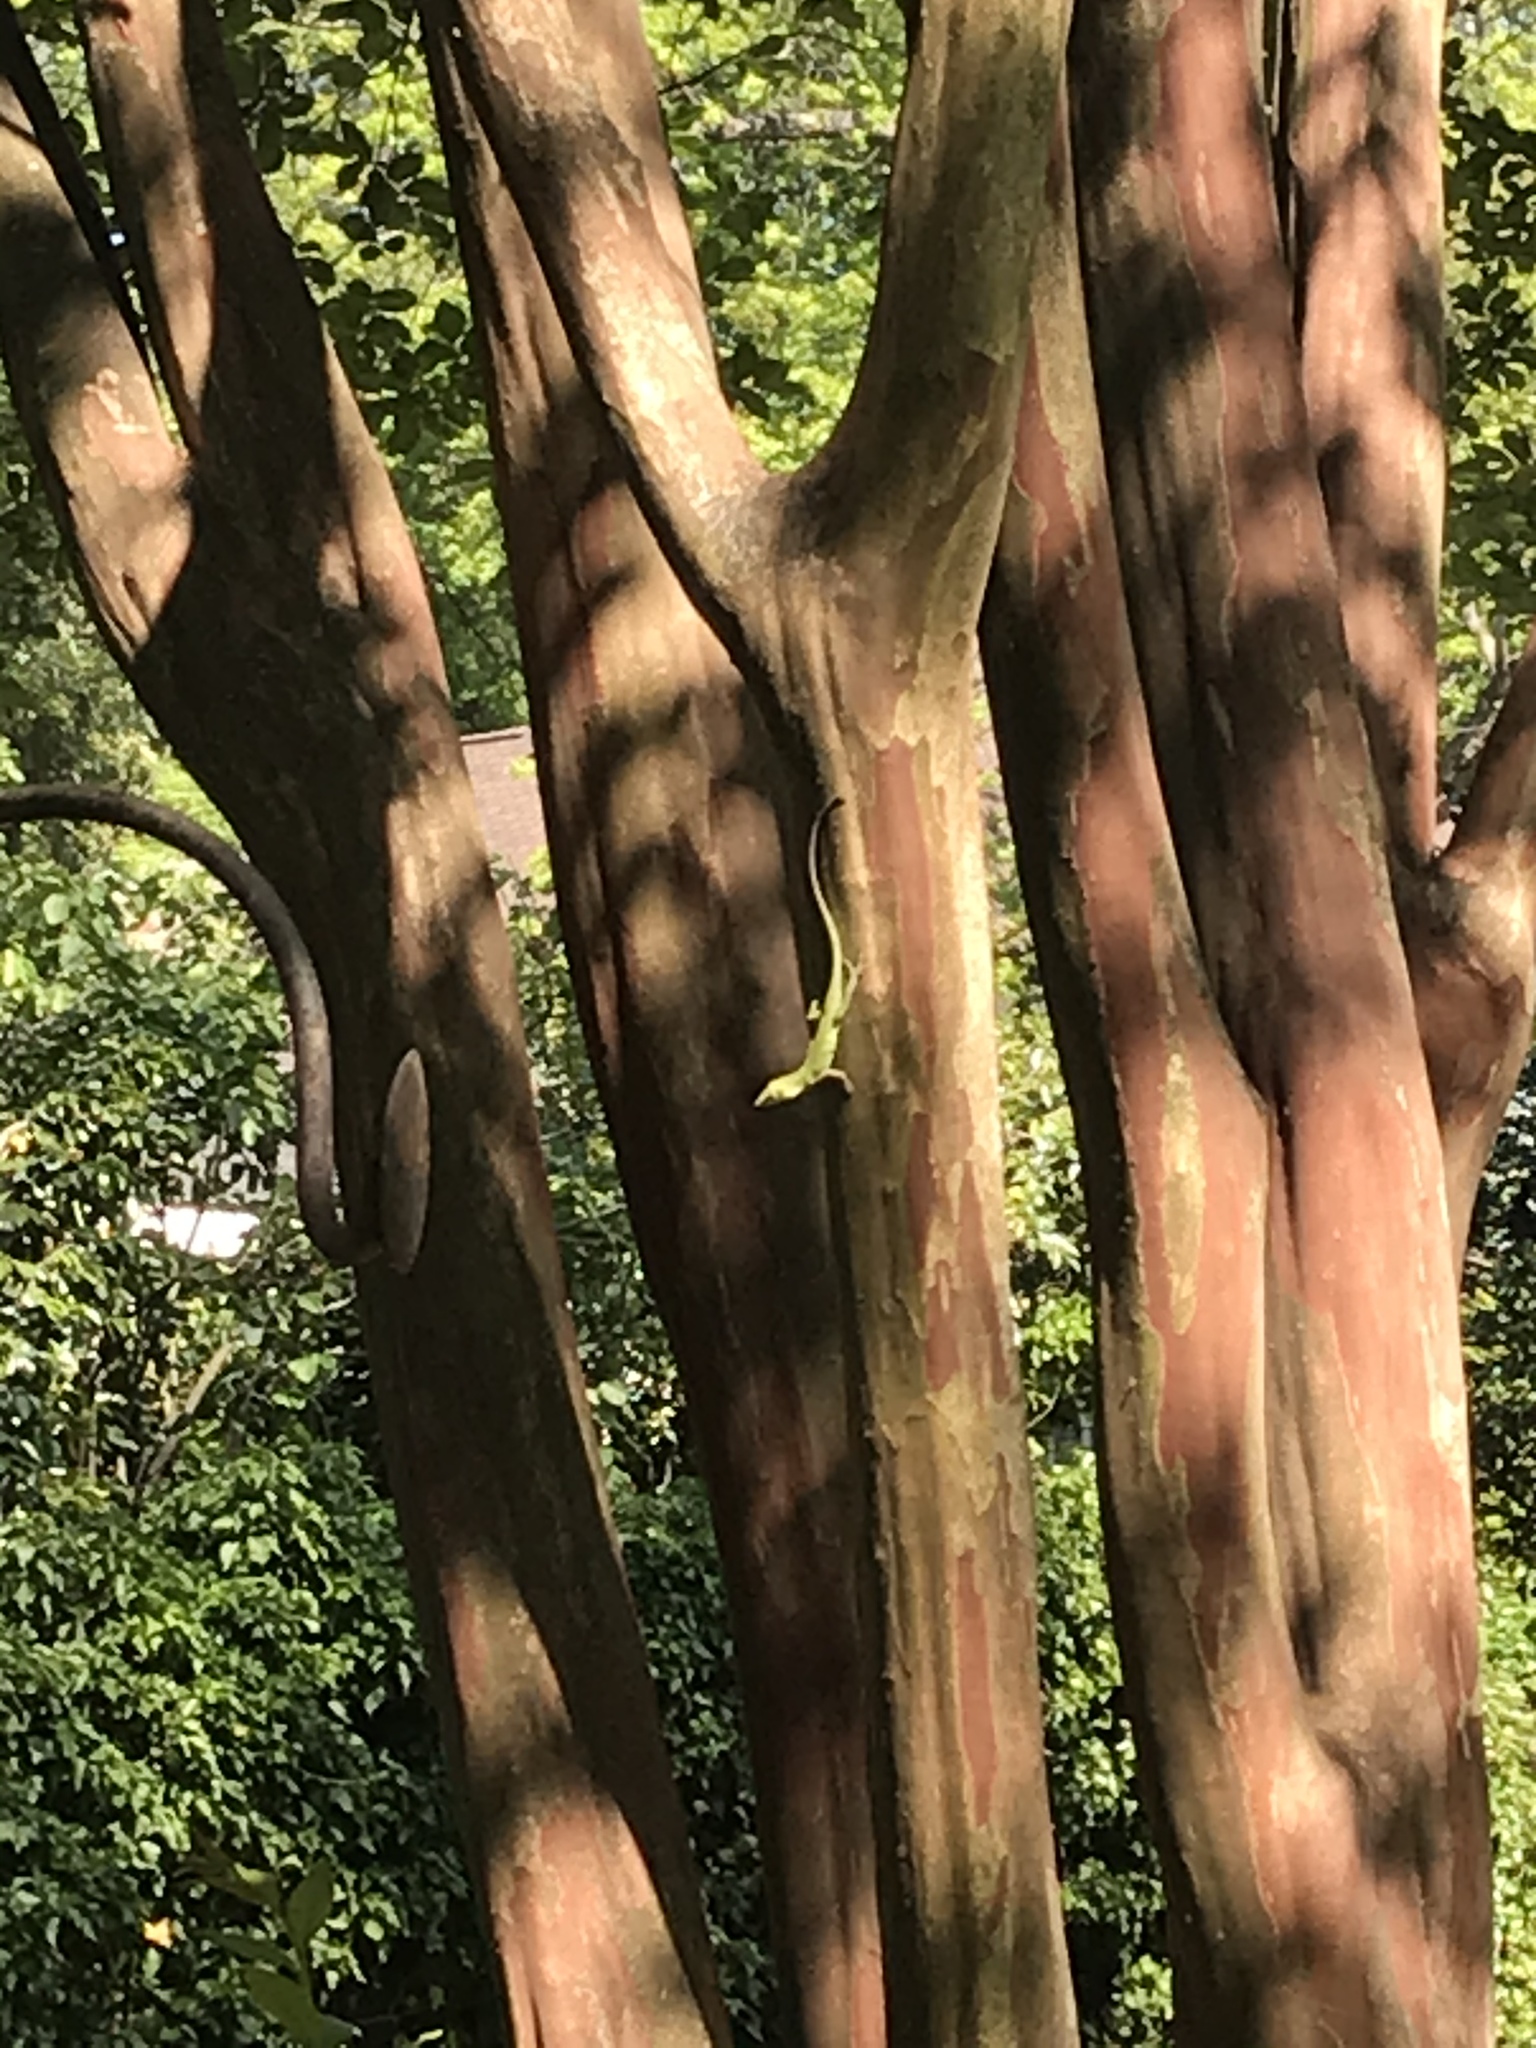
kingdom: Animalia
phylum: Chordata
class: Squamata
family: Dactyloidae
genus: Anolis
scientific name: Anolis carolinensis
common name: Green anole
